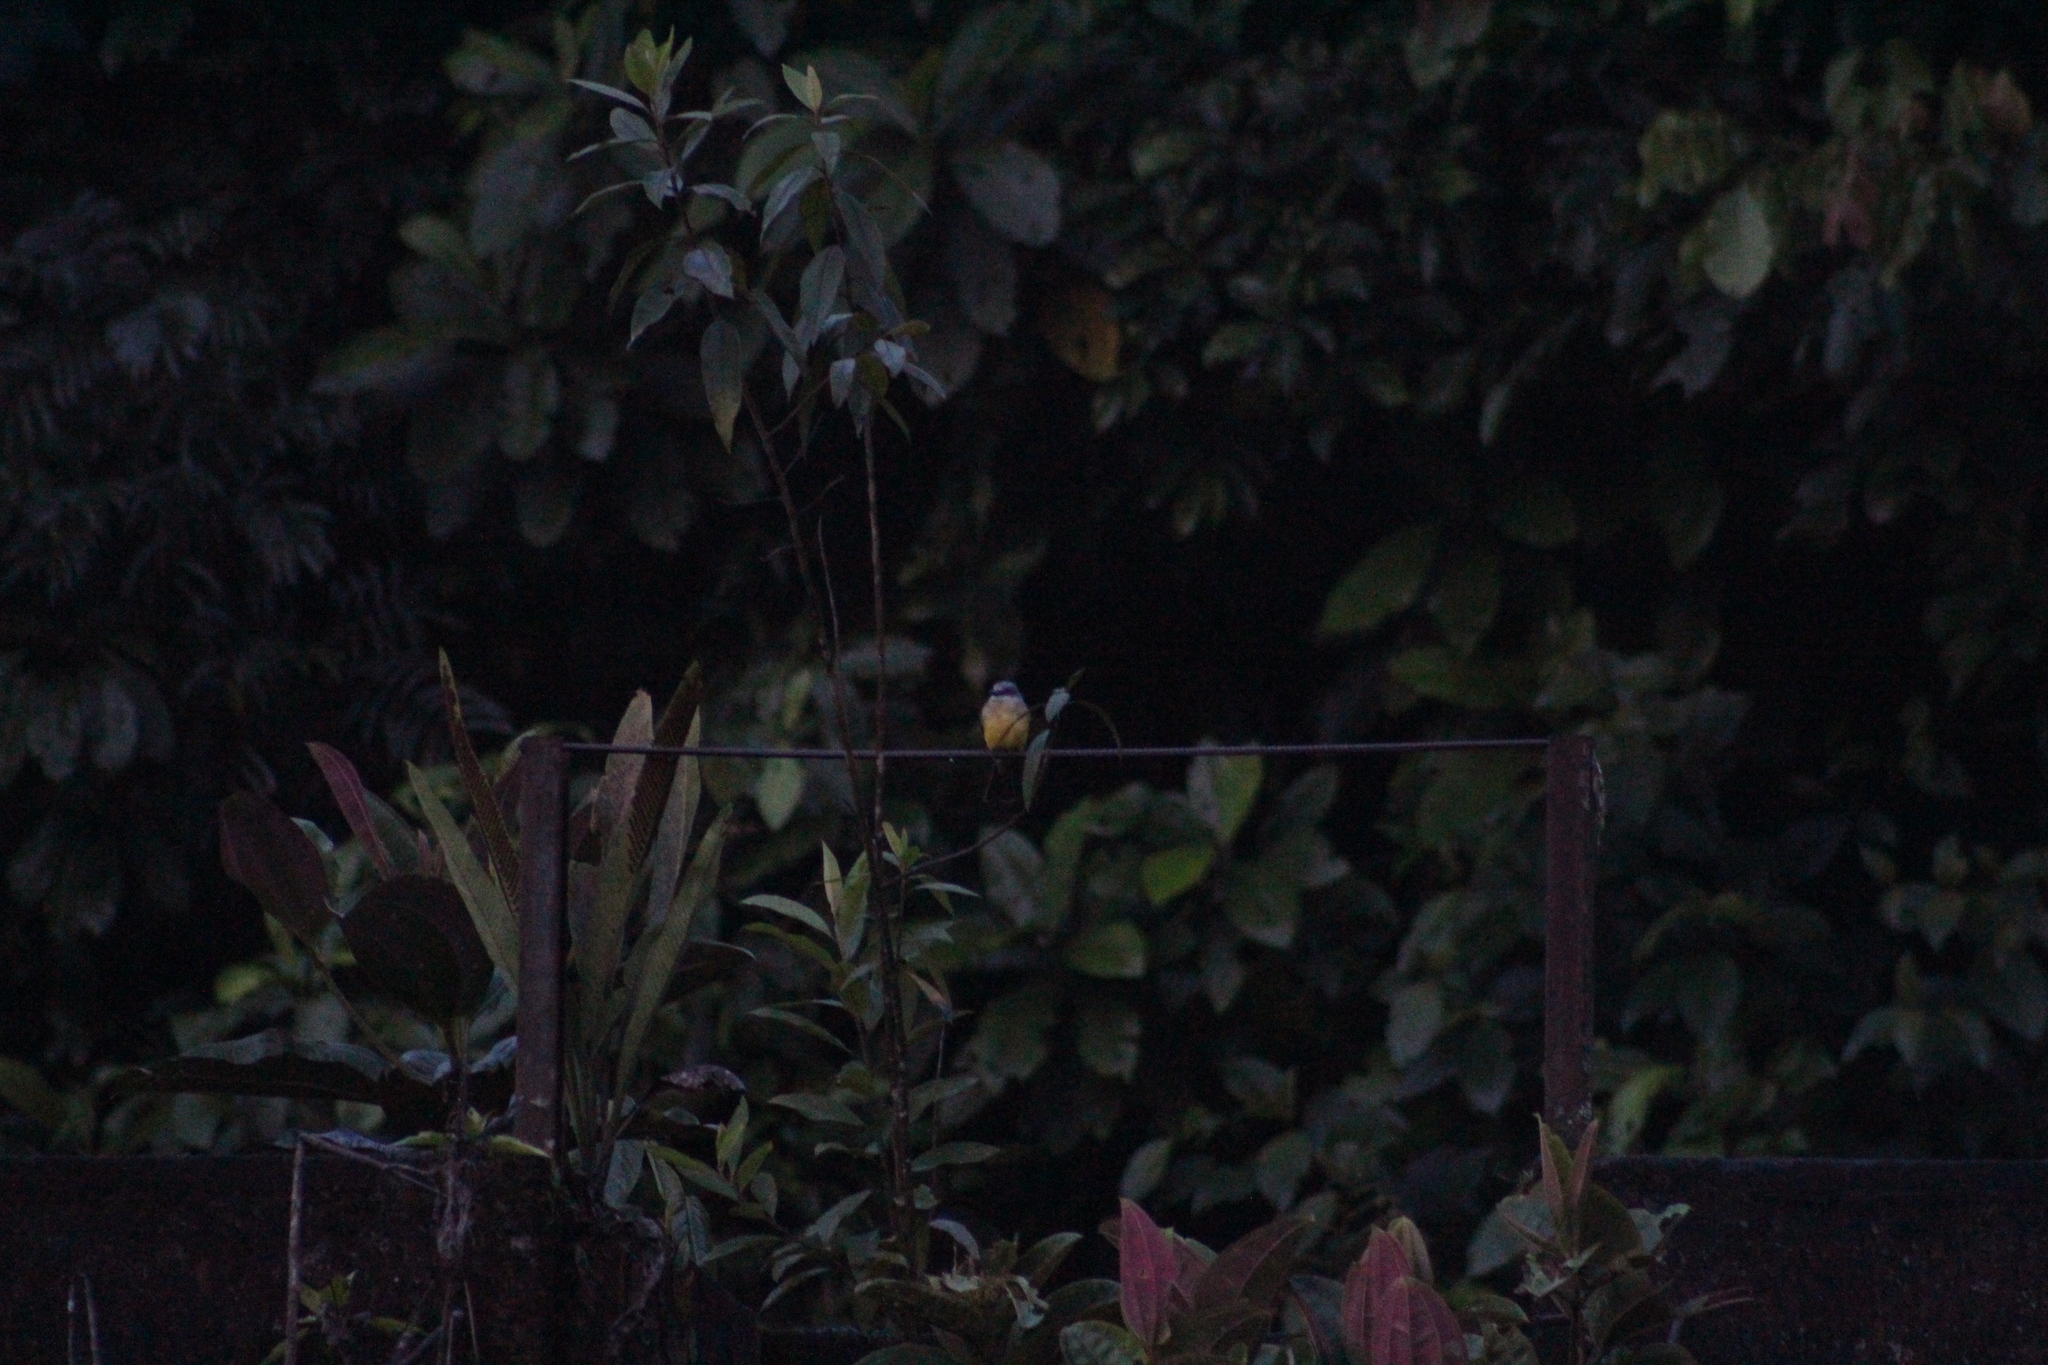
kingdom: Animalia
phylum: Chordata
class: Aves
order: Passeriformes
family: Tyrannidae
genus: Tyrannus
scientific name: Tyrannus melancholicus
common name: Tropical kingbird
